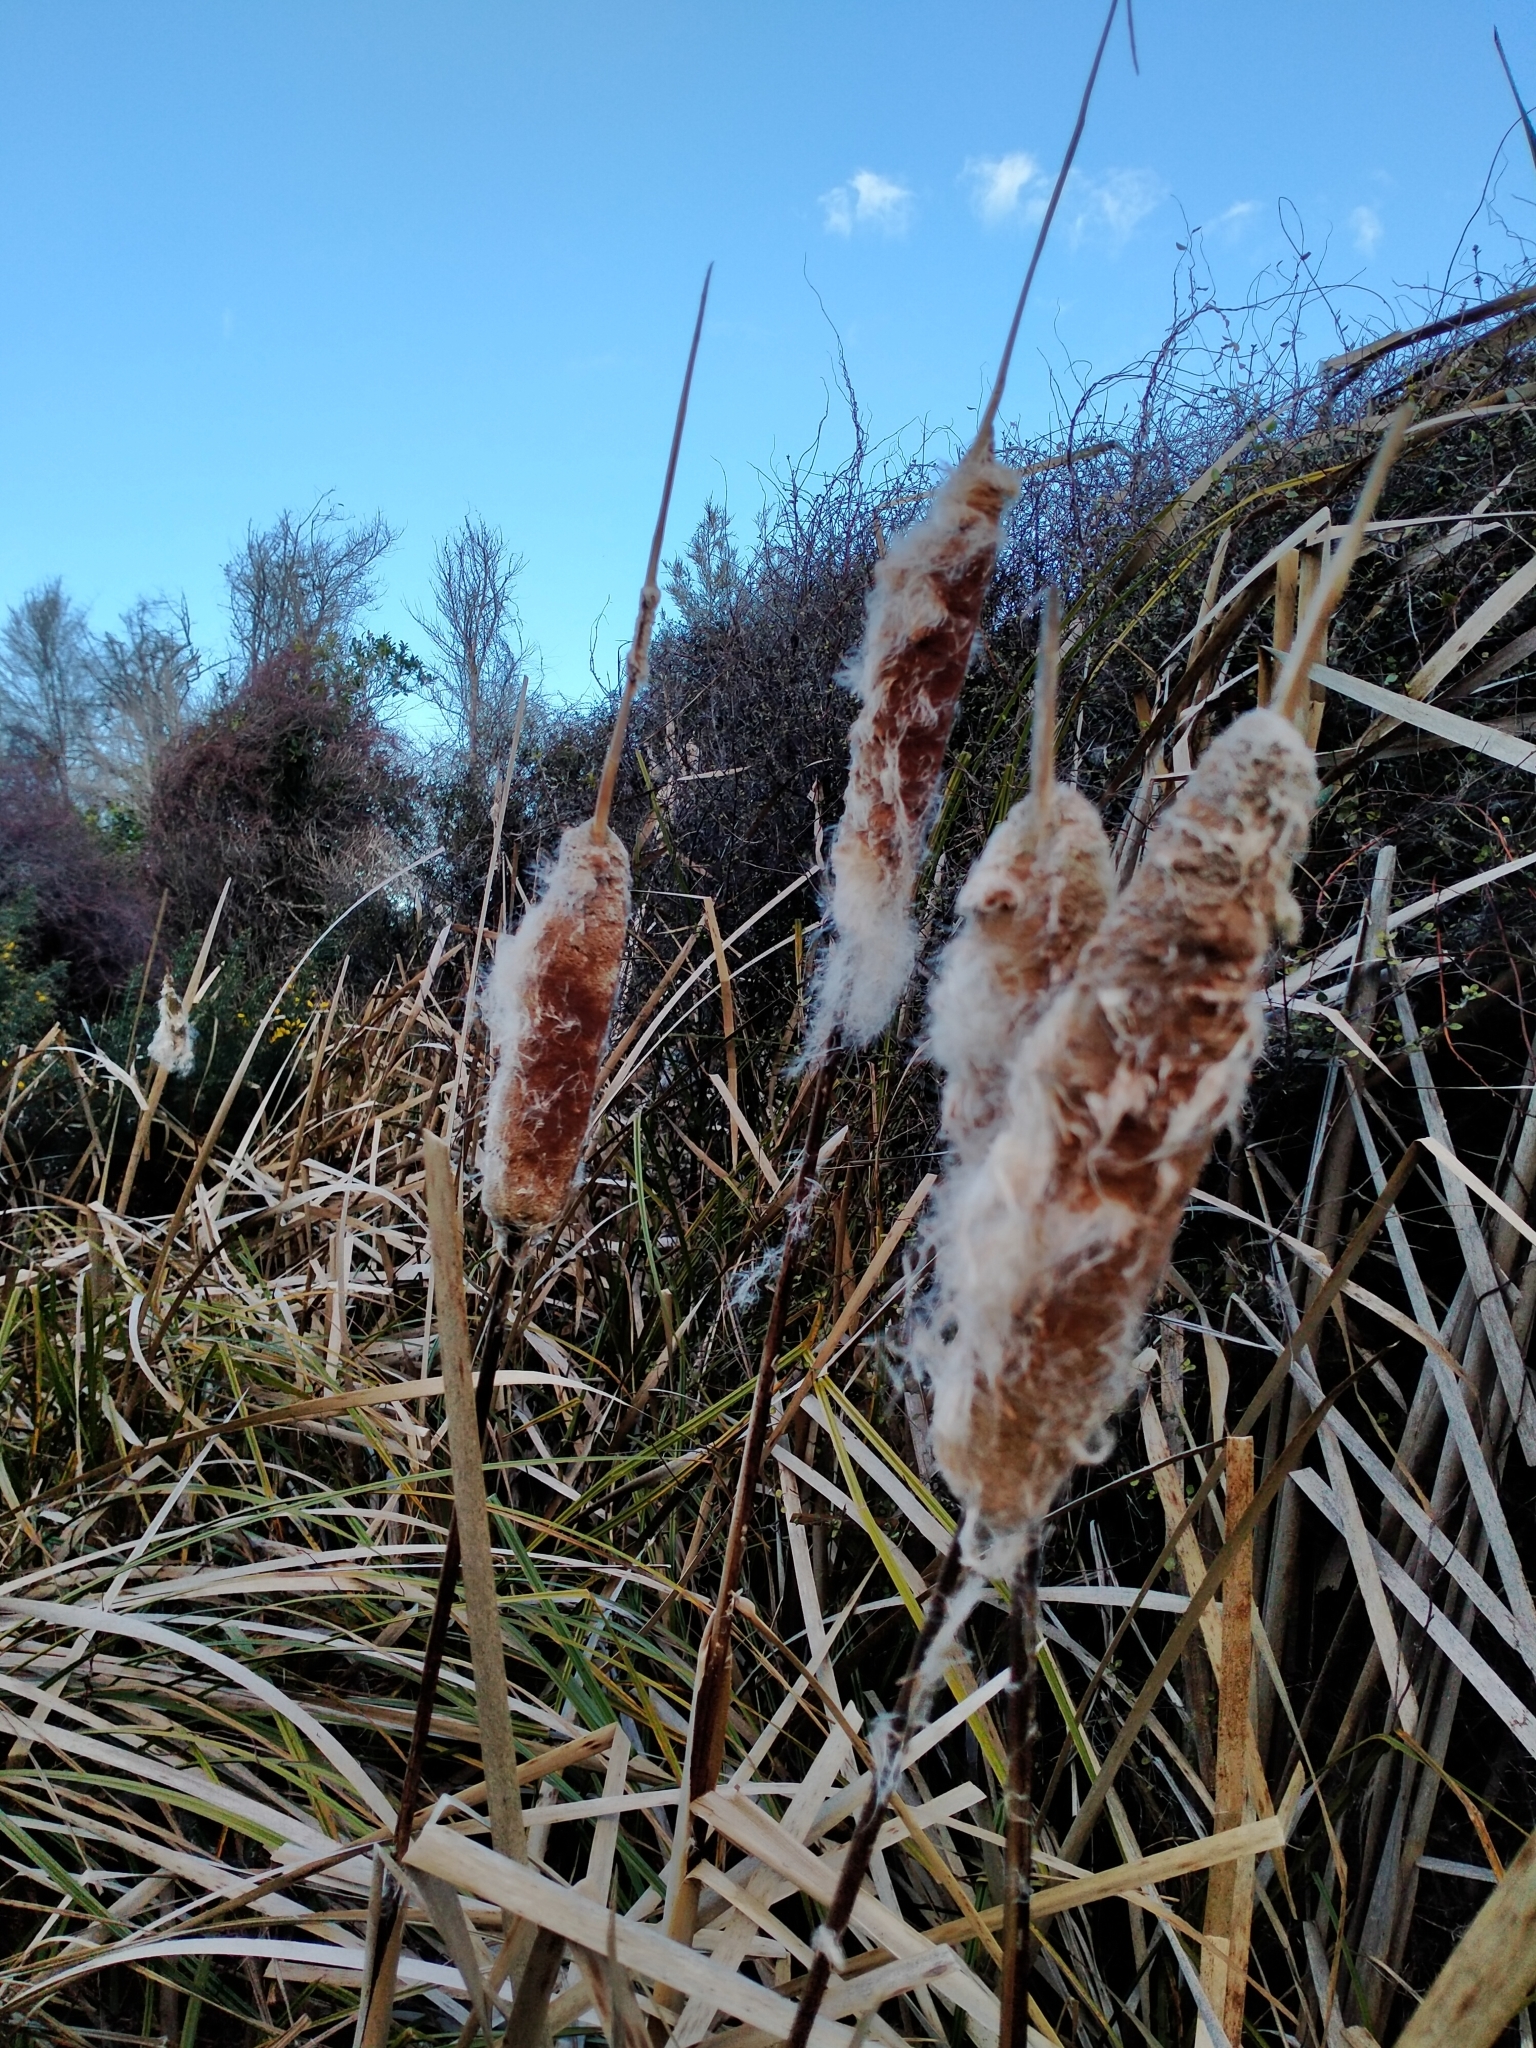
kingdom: Plantae
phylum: Tracheophyta
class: Liliopsida
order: Poales
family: Typhaceae
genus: Typha
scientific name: Typha orientalis
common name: Bullrush
